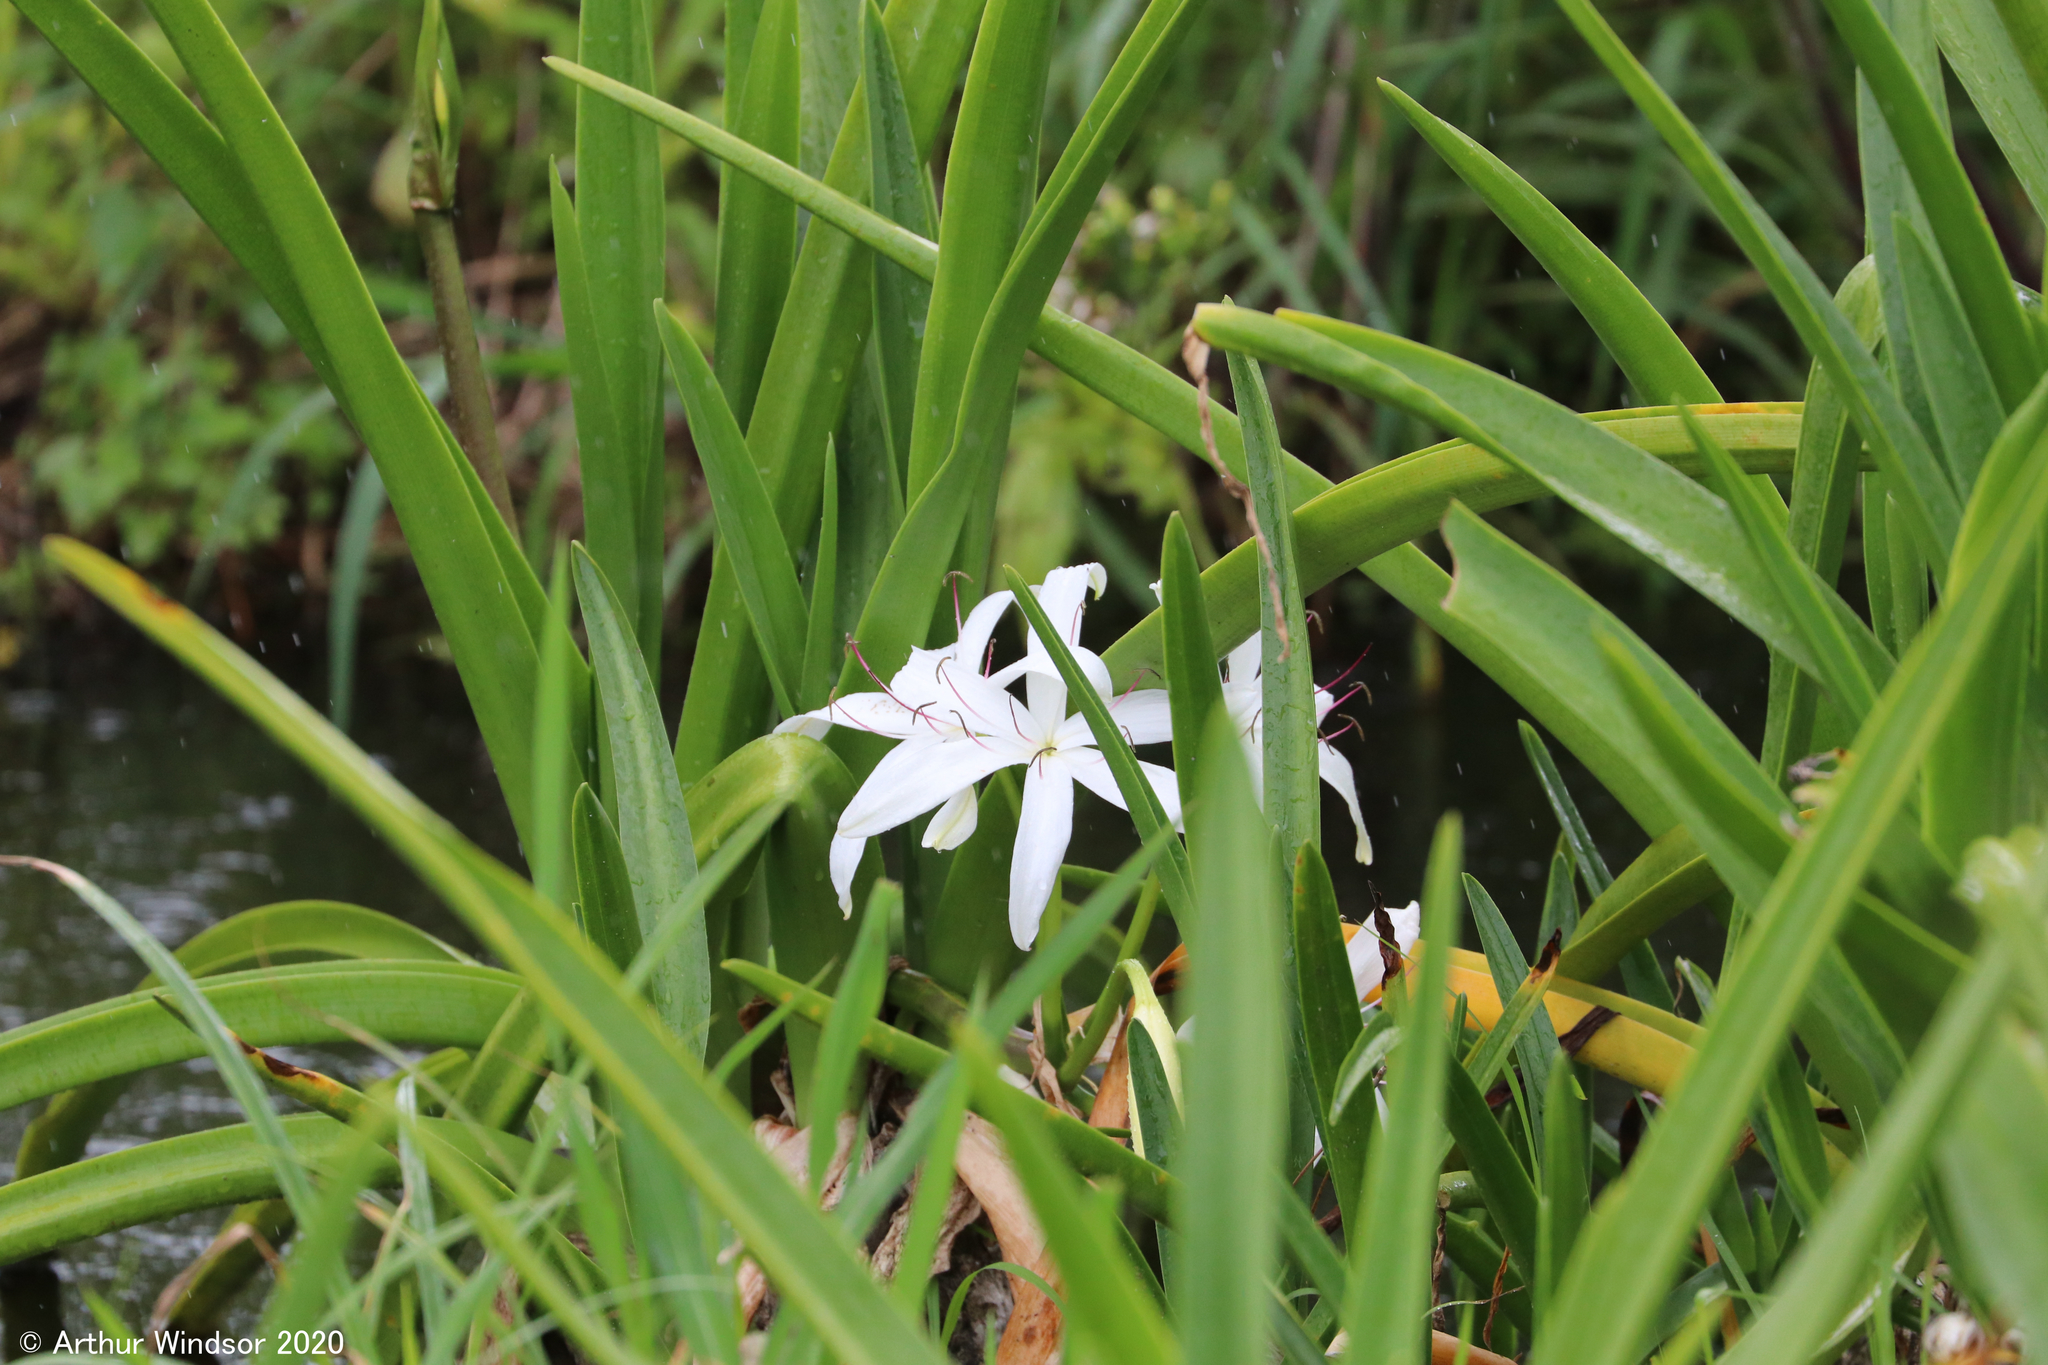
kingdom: Plantae
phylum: Tracheophyta
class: Liliopsida
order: Asparagales
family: Amaryllidaceae
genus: Crinum
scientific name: Crinum americanum
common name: Florida swamp-lily
